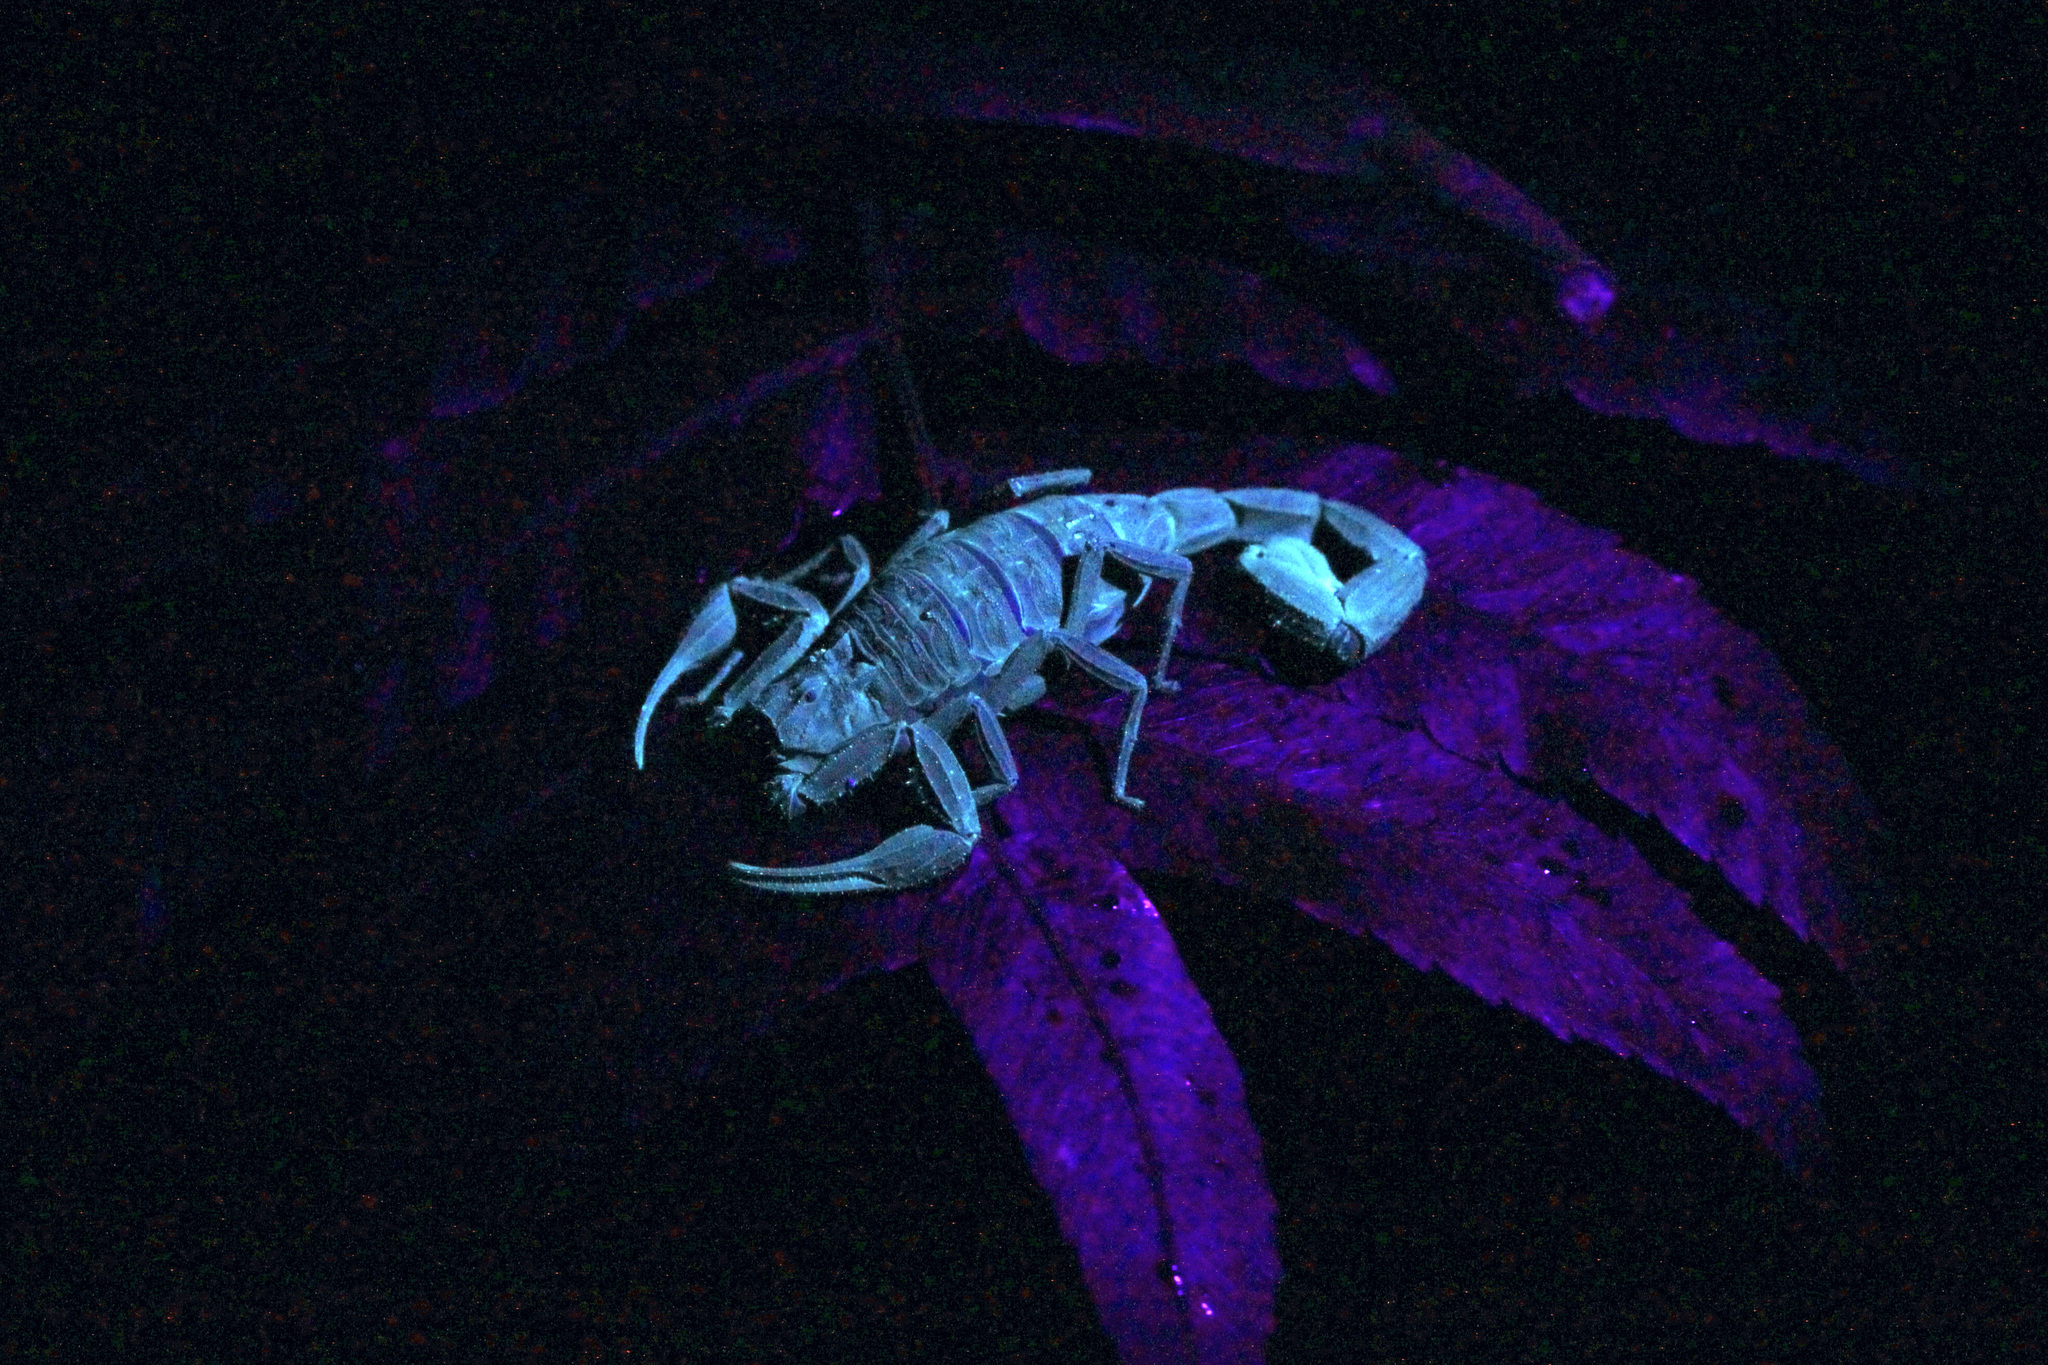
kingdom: Animalia
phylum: Arthropoda
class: Arachnida
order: Scorpiones
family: Buthidae
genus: Tityus
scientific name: Tityus trinitatis
